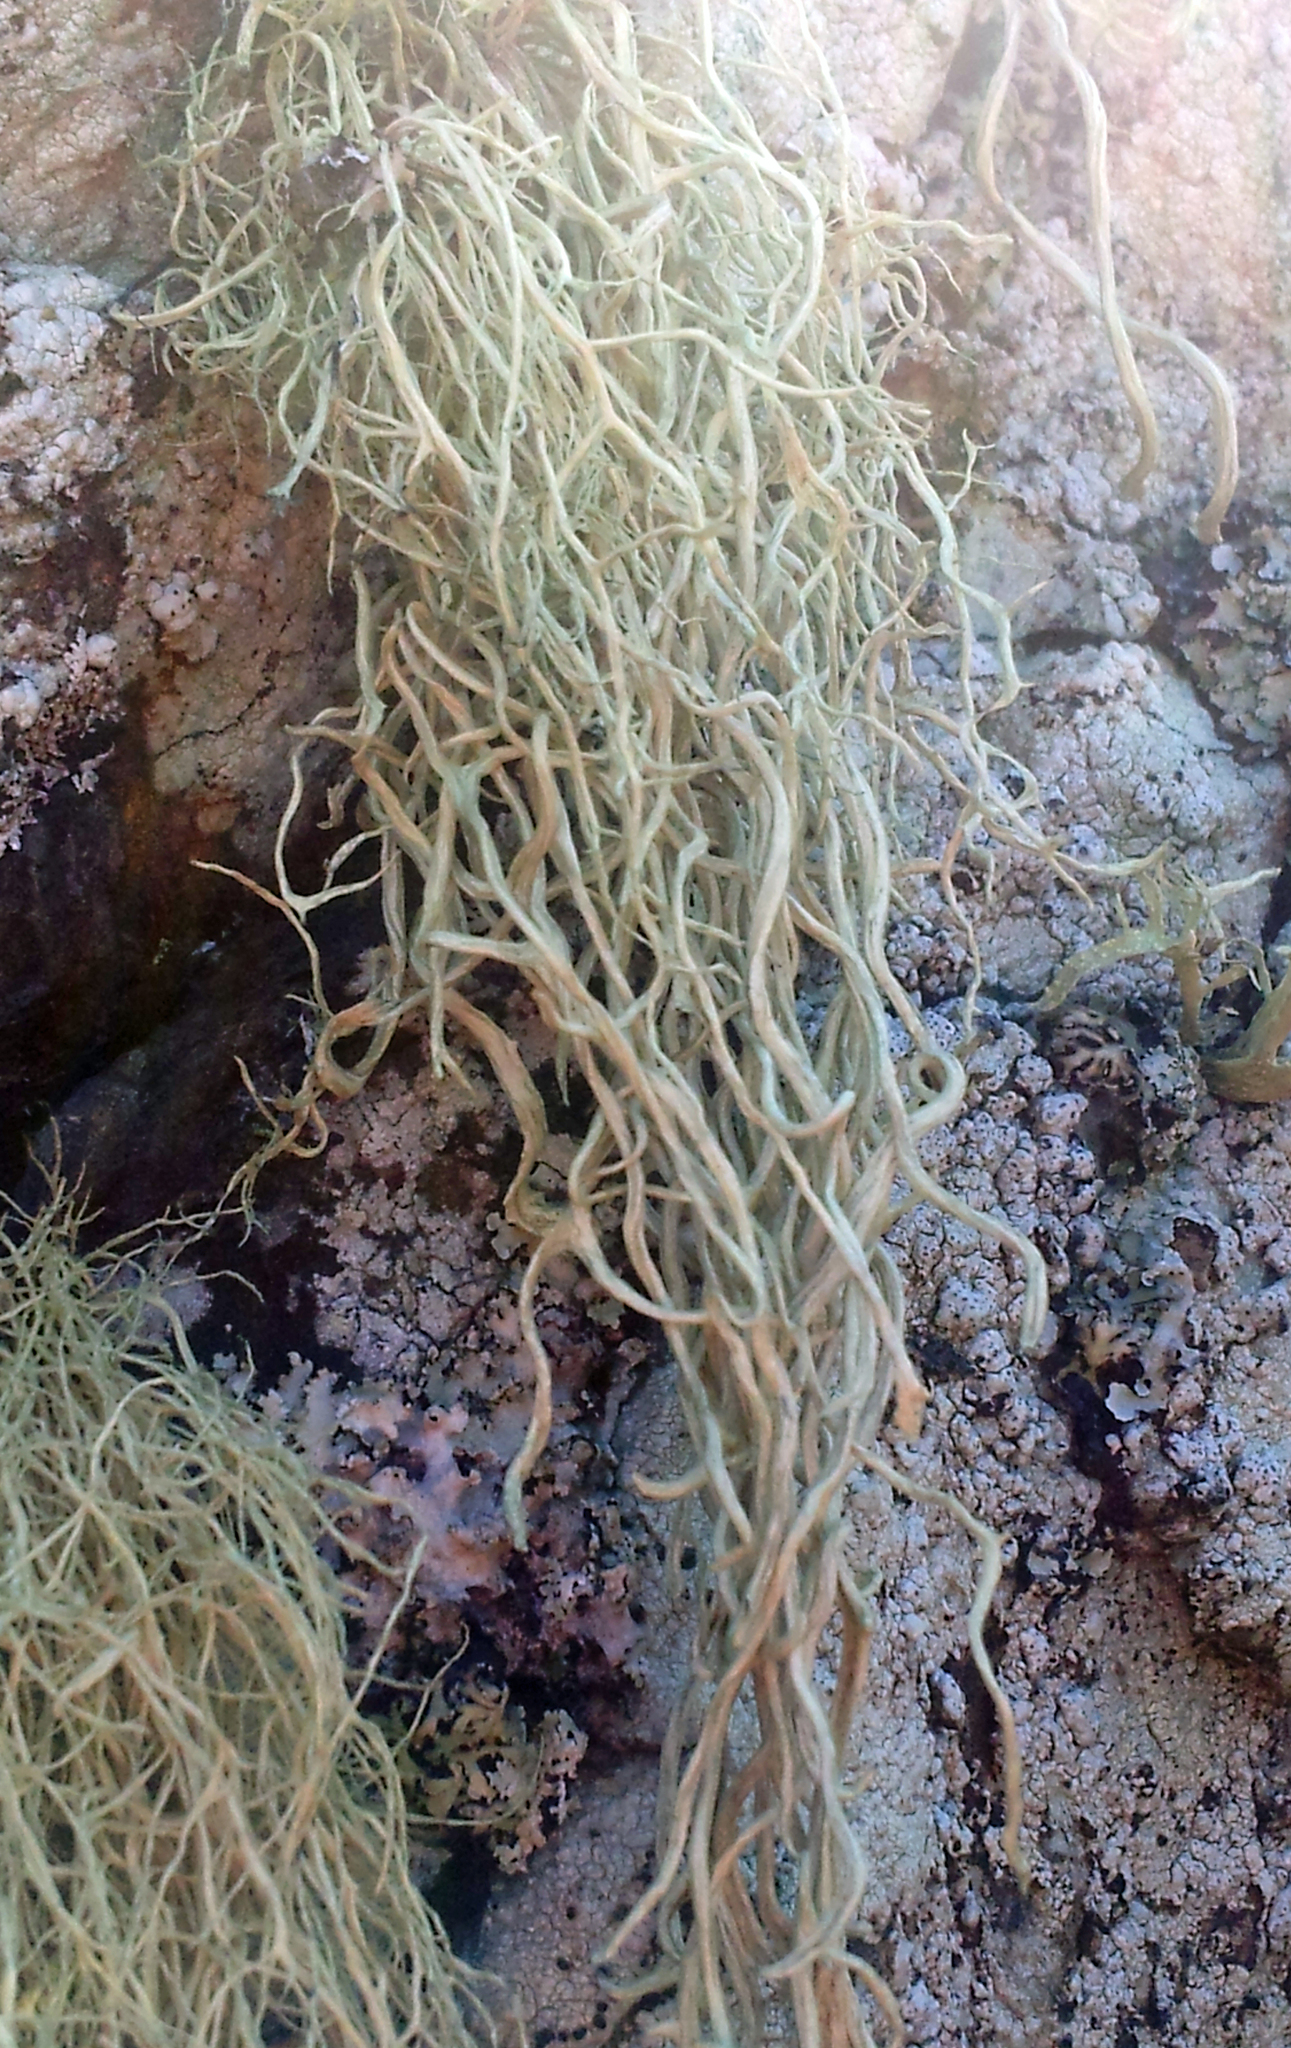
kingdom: Fungi
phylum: Ascomycota
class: Lecanoromycetes
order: Lecanorales
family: Ramalinaceae
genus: Ramalina
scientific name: Ramalina meridionalis
